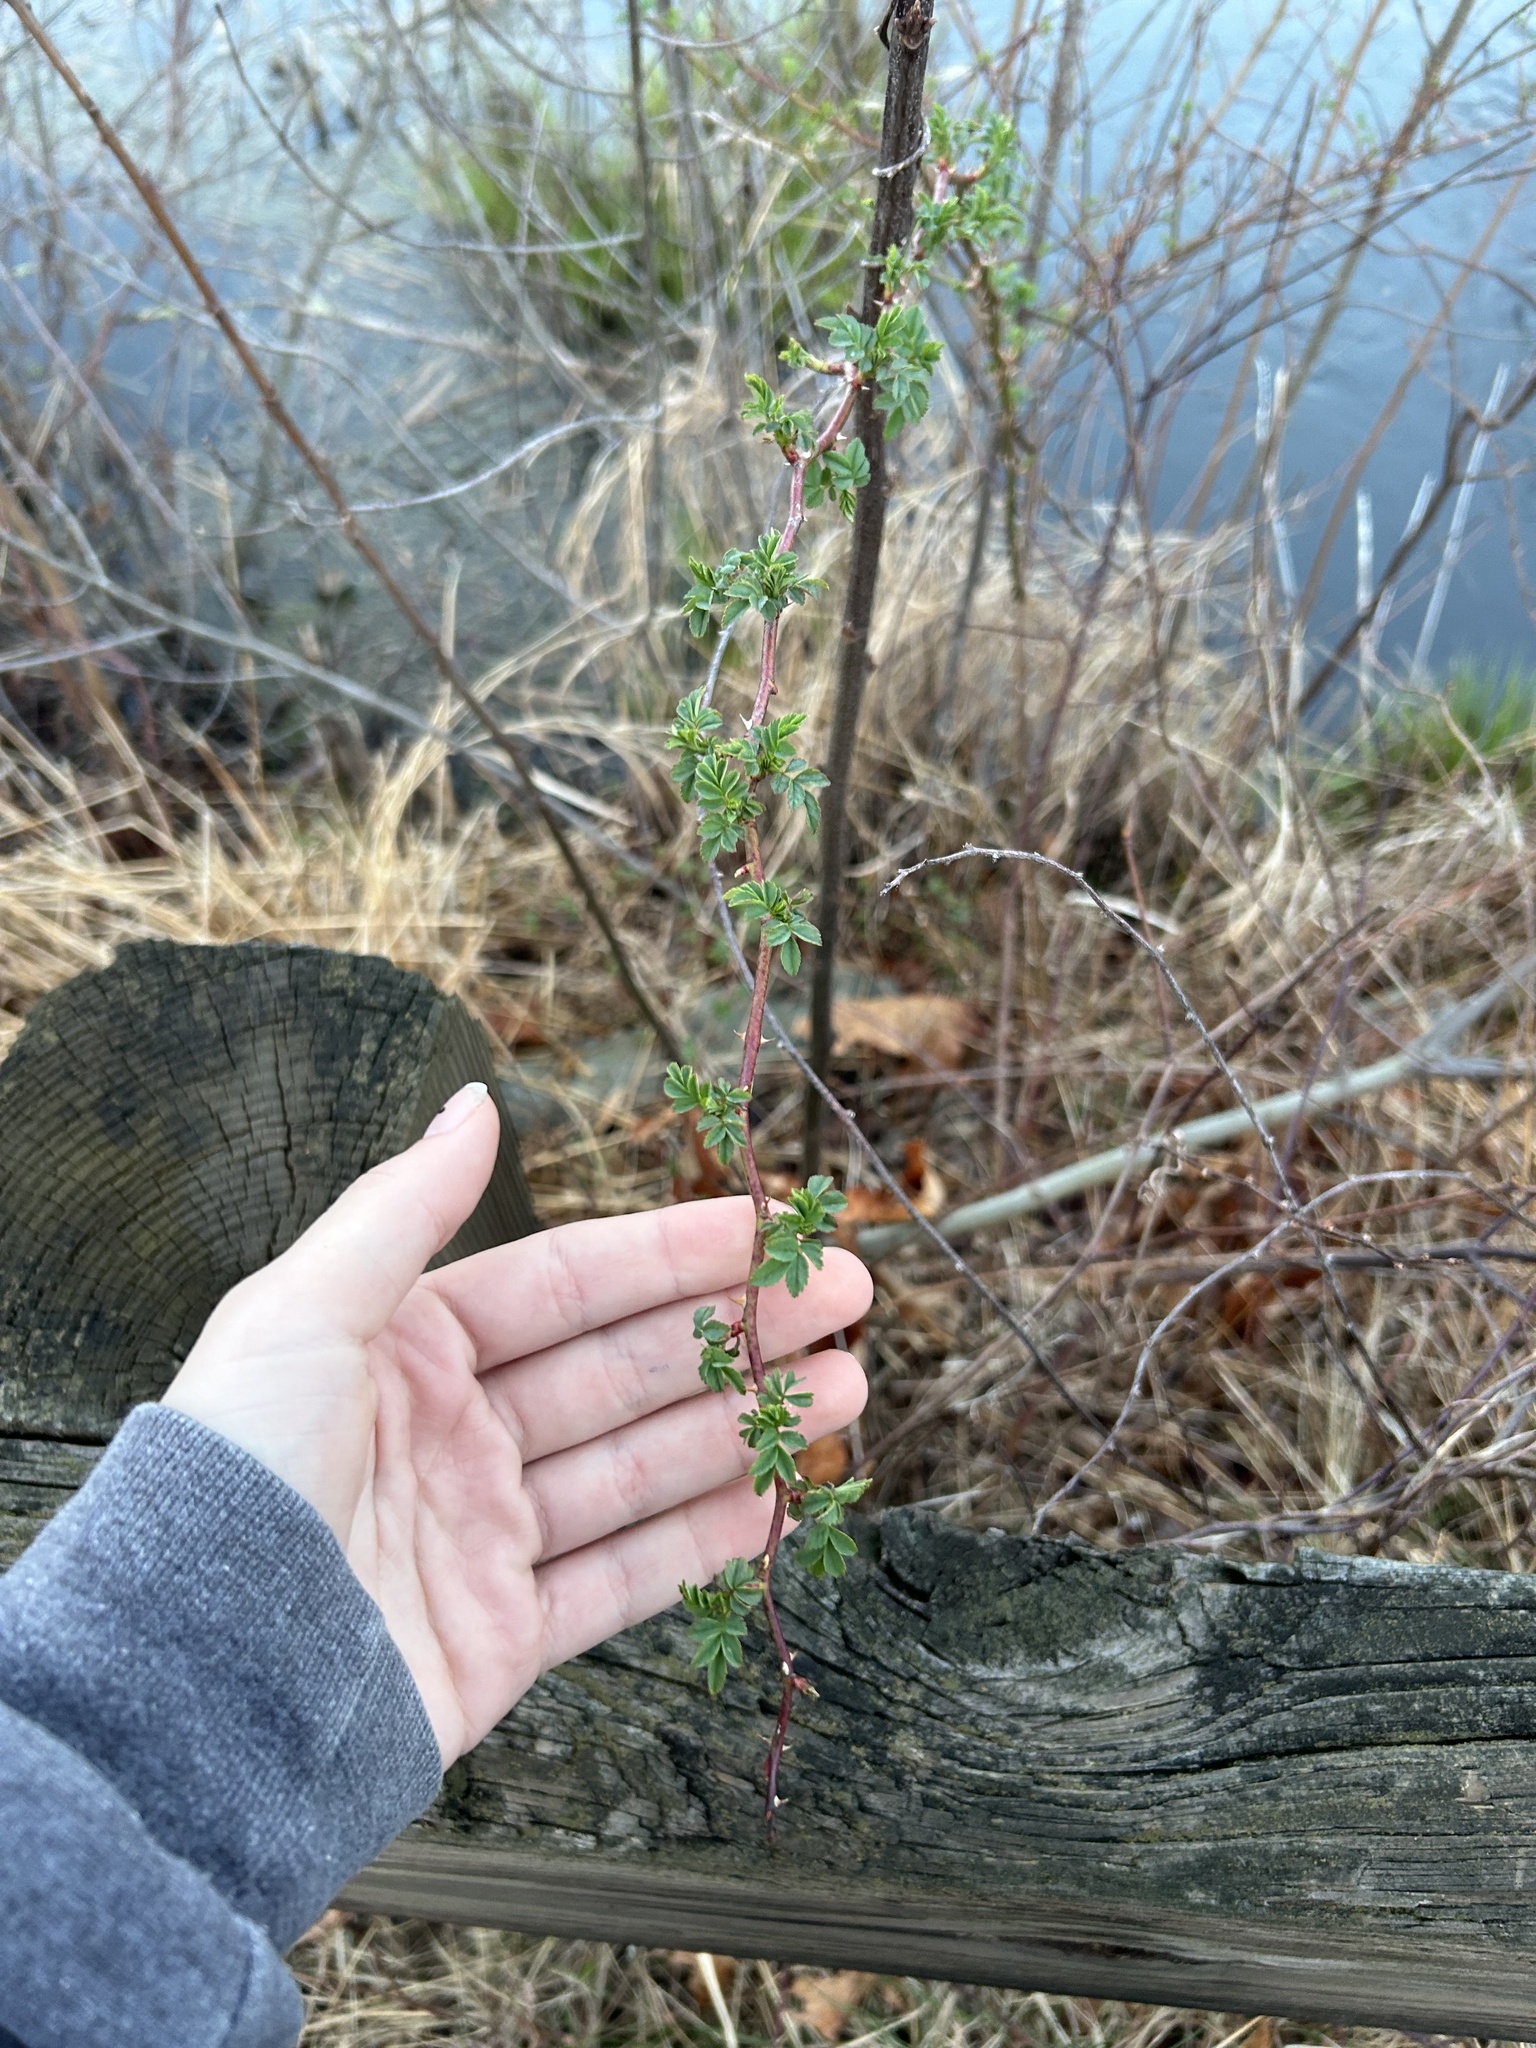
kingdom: Plantae
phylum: Tracheophyta
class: Magnoliopsida
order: Rosales
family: Rosaceae
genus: Rosa
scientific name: Rosa multiflora
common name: Multiflora rose
